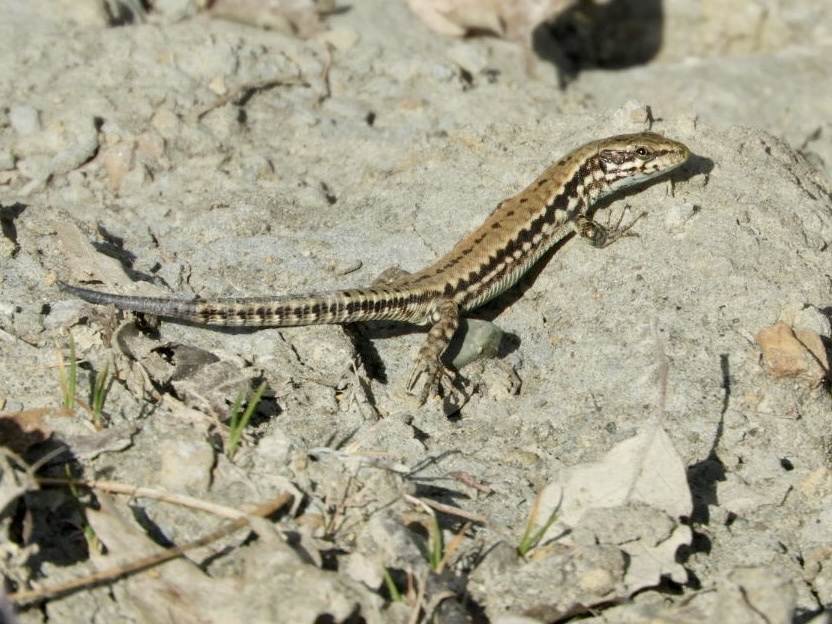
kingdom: Animalia
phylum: Chordata
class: Squamata
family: Lacertidae
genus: Podarcis
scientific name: Podarcis muralis
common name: Common wall lizard
